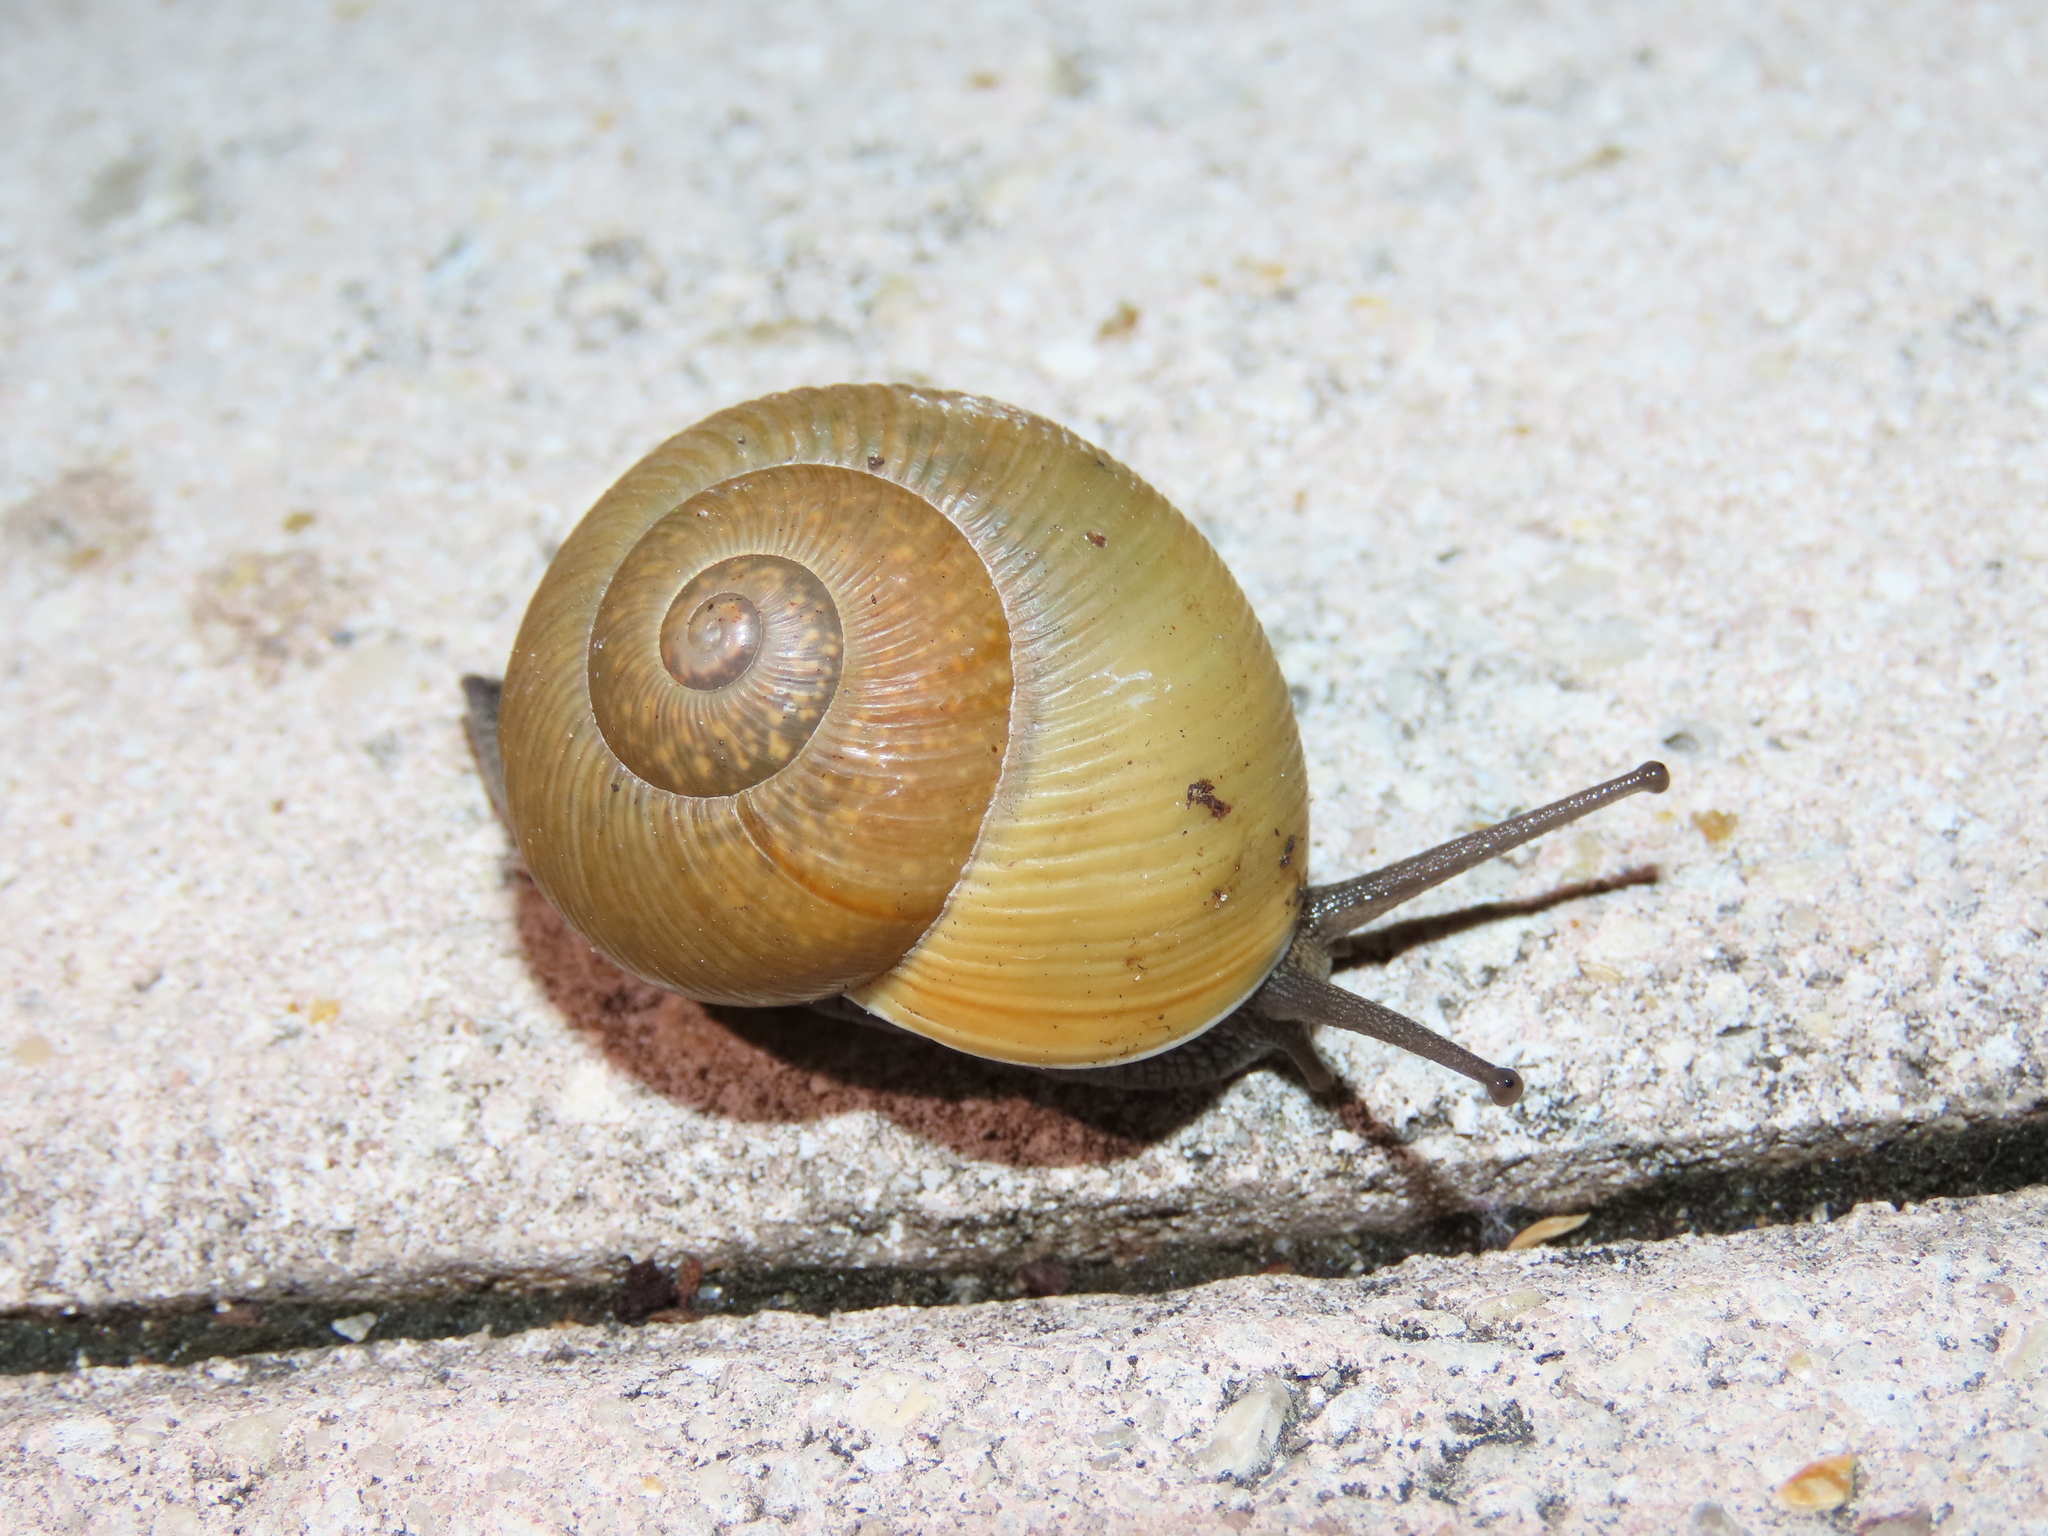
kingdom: Animalia
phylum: Mollusca
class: Gastropoda
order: Stylommatophora
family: Zachrysiidae
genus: Zachrysia
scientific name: Zachrysia provisoria
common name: Garden zachrysia
